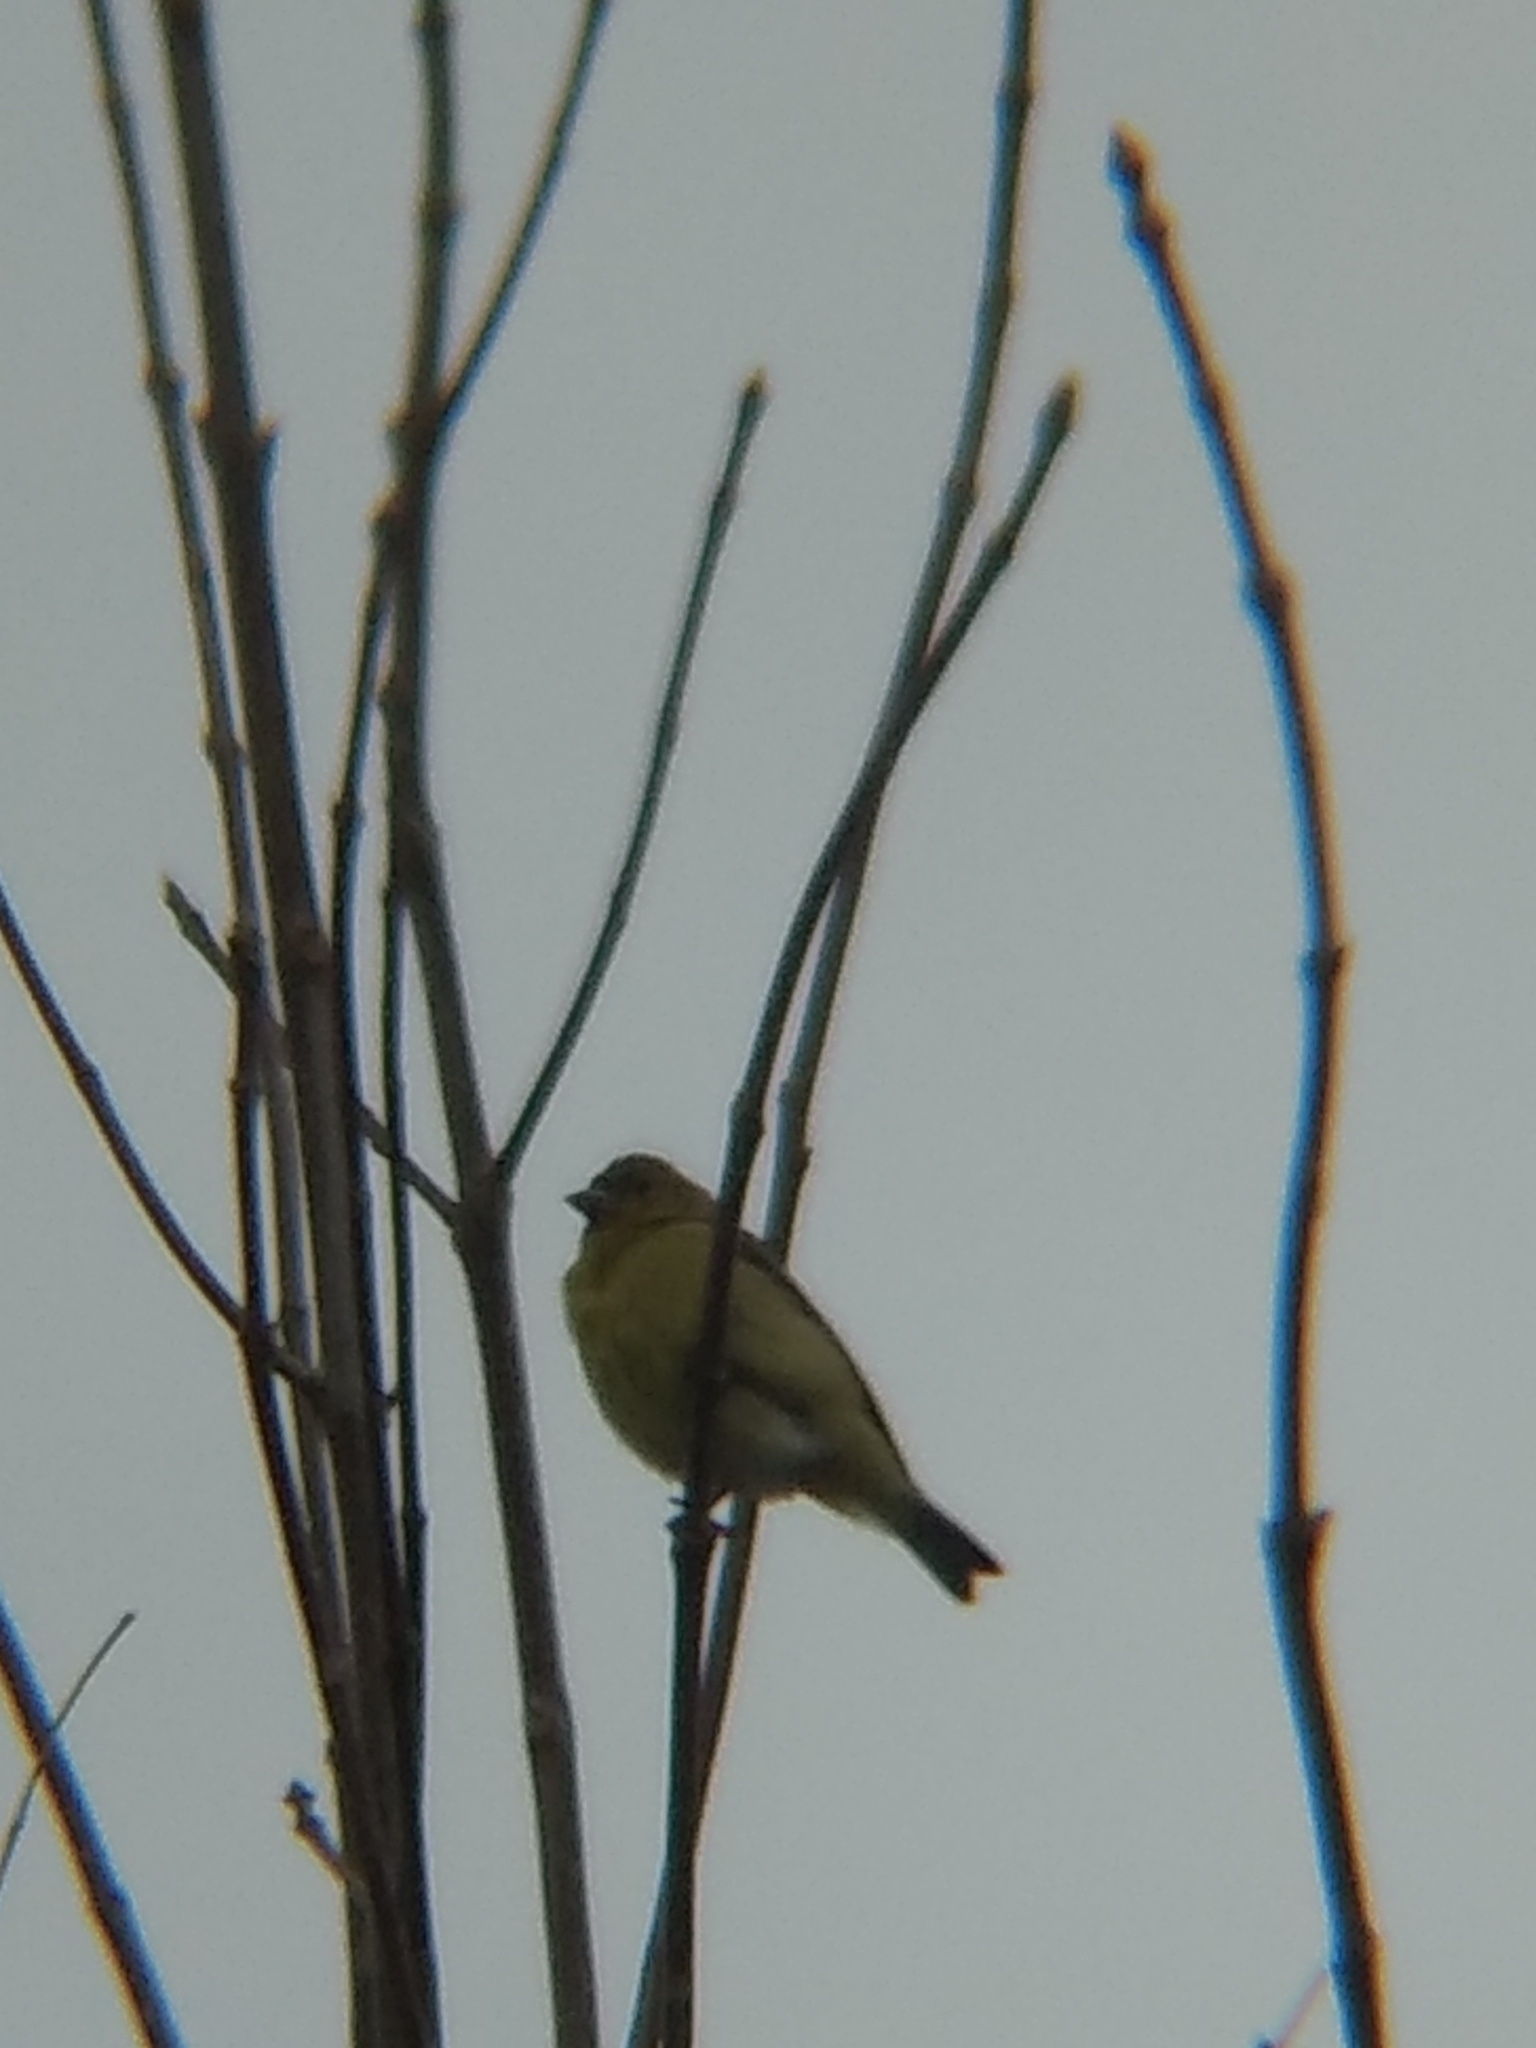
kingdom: Animalia
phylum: Chordata
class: Aves
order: Passeriformes
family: Fringillidae
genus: Spinus
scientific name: Spinus psaltria
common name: Lesser goldfinch
